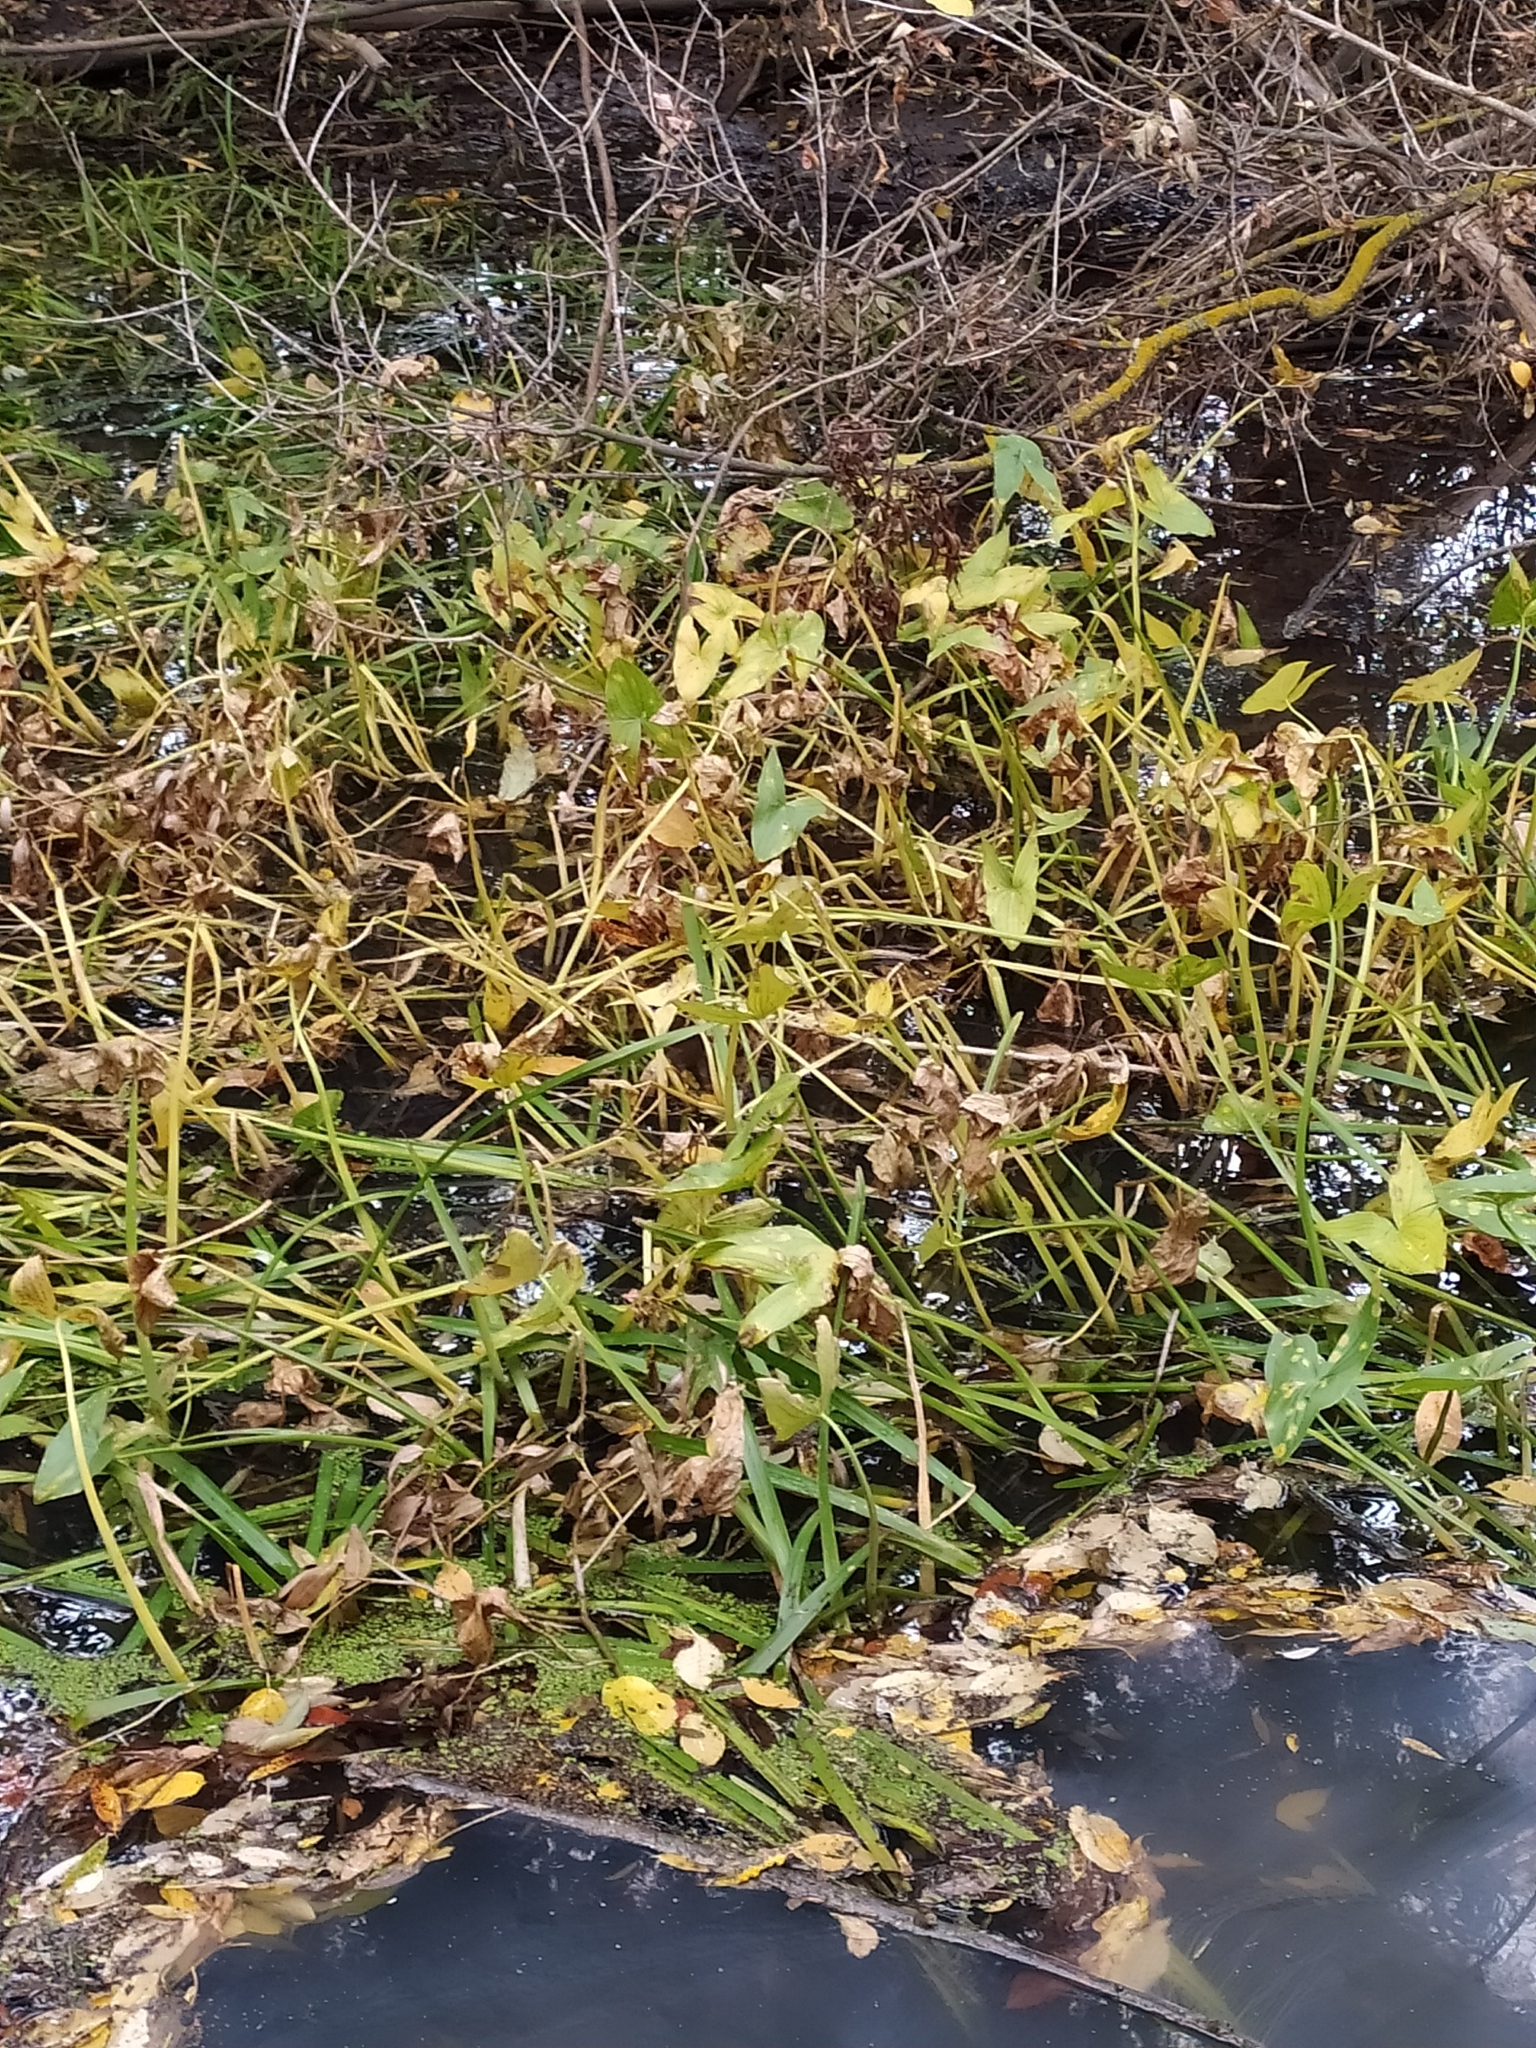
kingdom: Plantae
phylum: Tracheophyta
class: Liliopsida
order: Alismatales
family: Alismataceae
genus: Sagittaria
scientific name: Sagittaria sagittifolia
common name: Arrowhead
